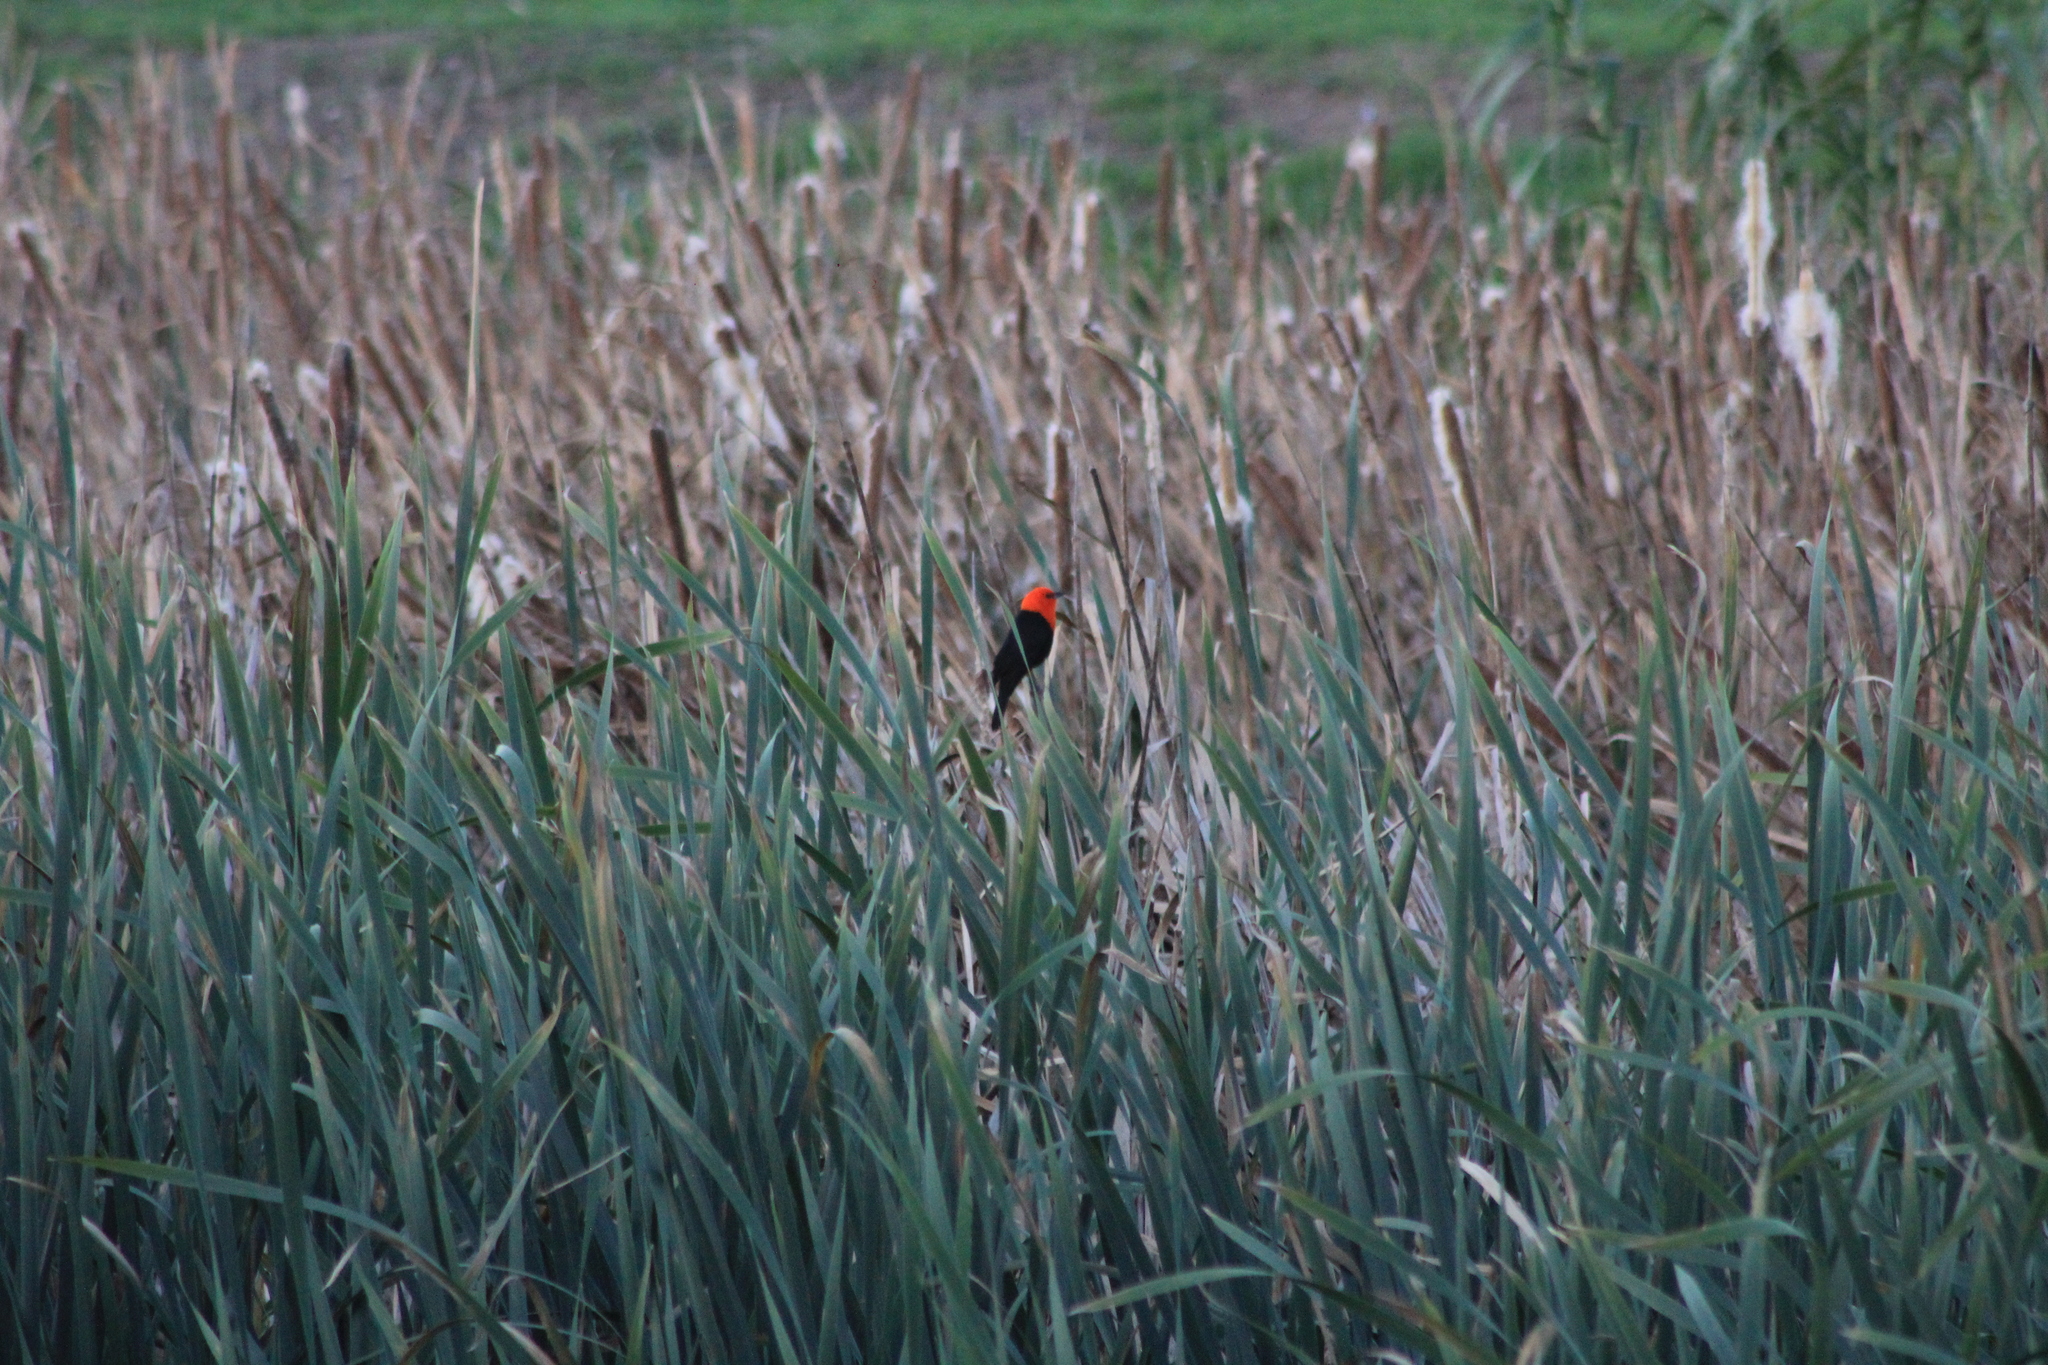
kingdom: Animalia
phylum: Chordata
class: Aves
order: Passeriformes
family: Icteridae
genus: Amblyramphus
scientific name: Amblyramphus holosericeus
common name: Scarlet-headed blackbird
